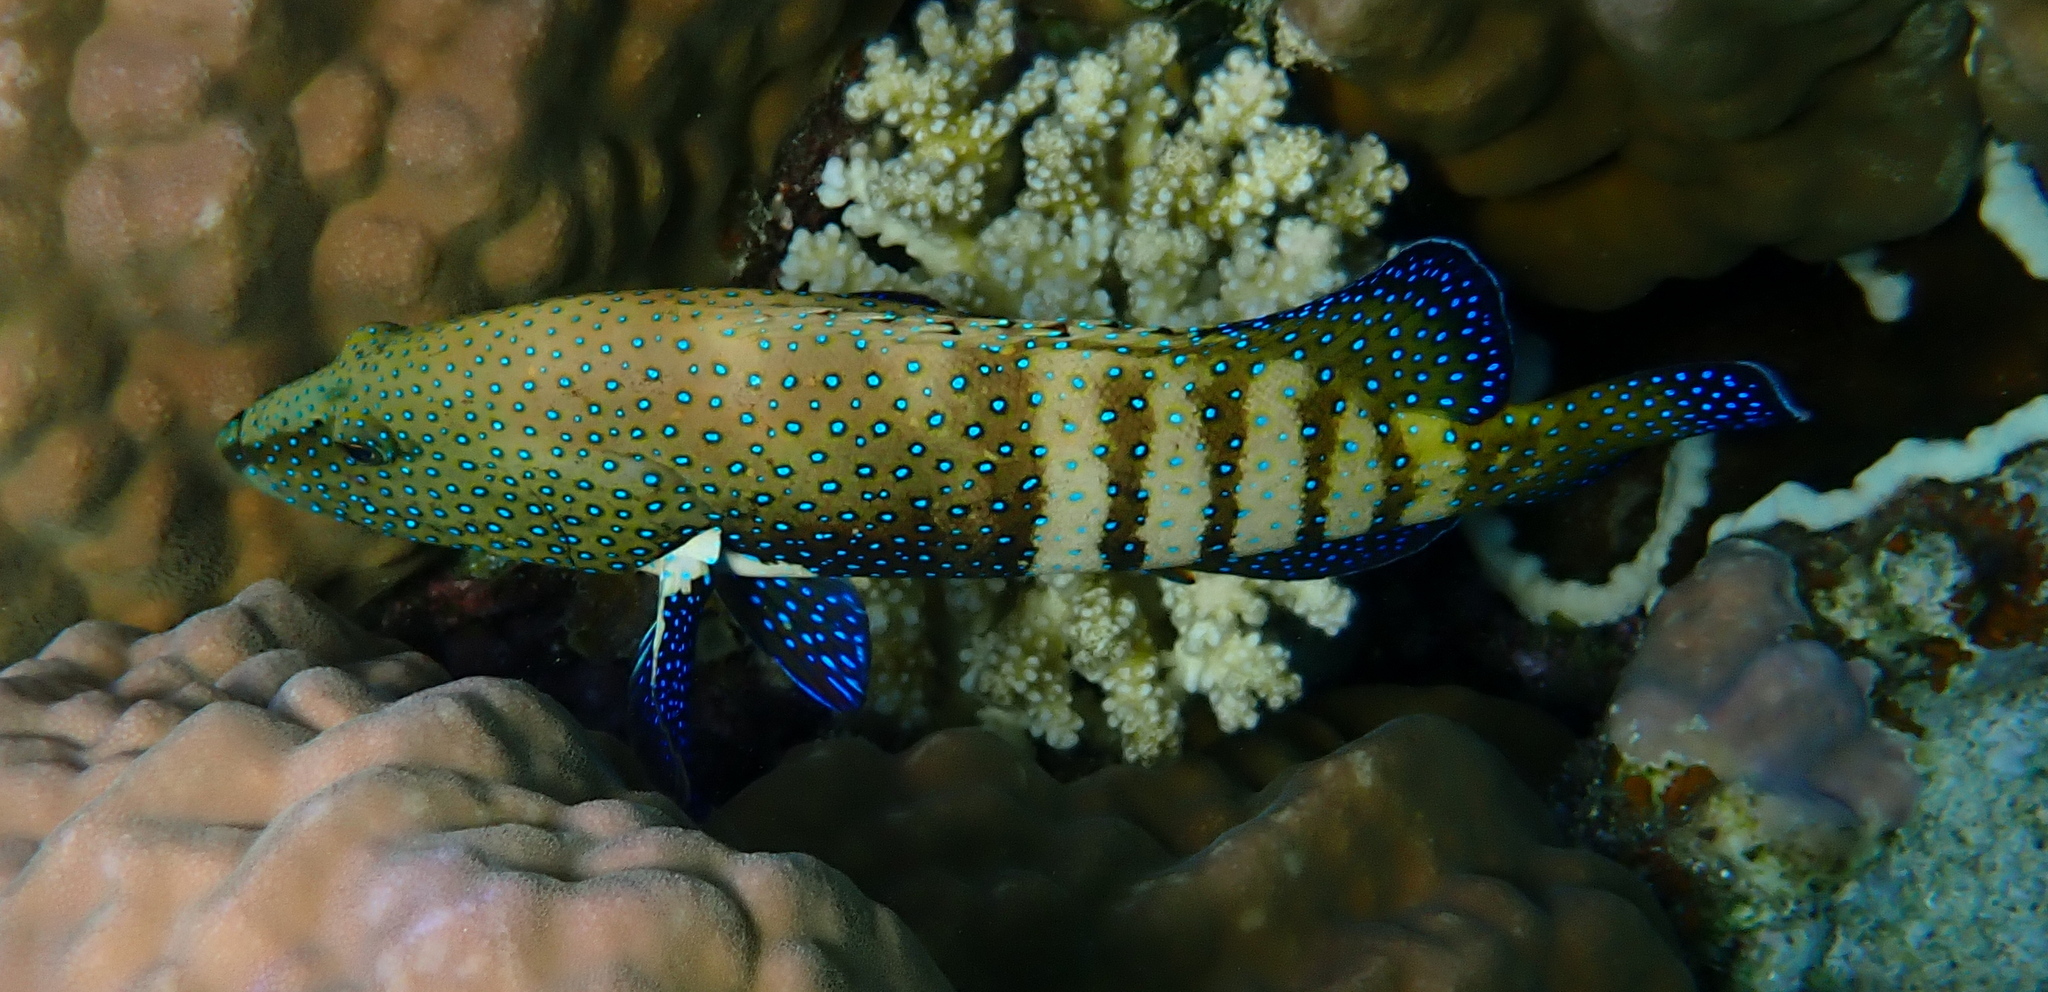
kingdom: Animalia
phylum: Chordata
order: Perciformes
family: Serranidae
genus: Cephalopholis
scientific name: Cephalopholis argus
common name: Peacock grouper
